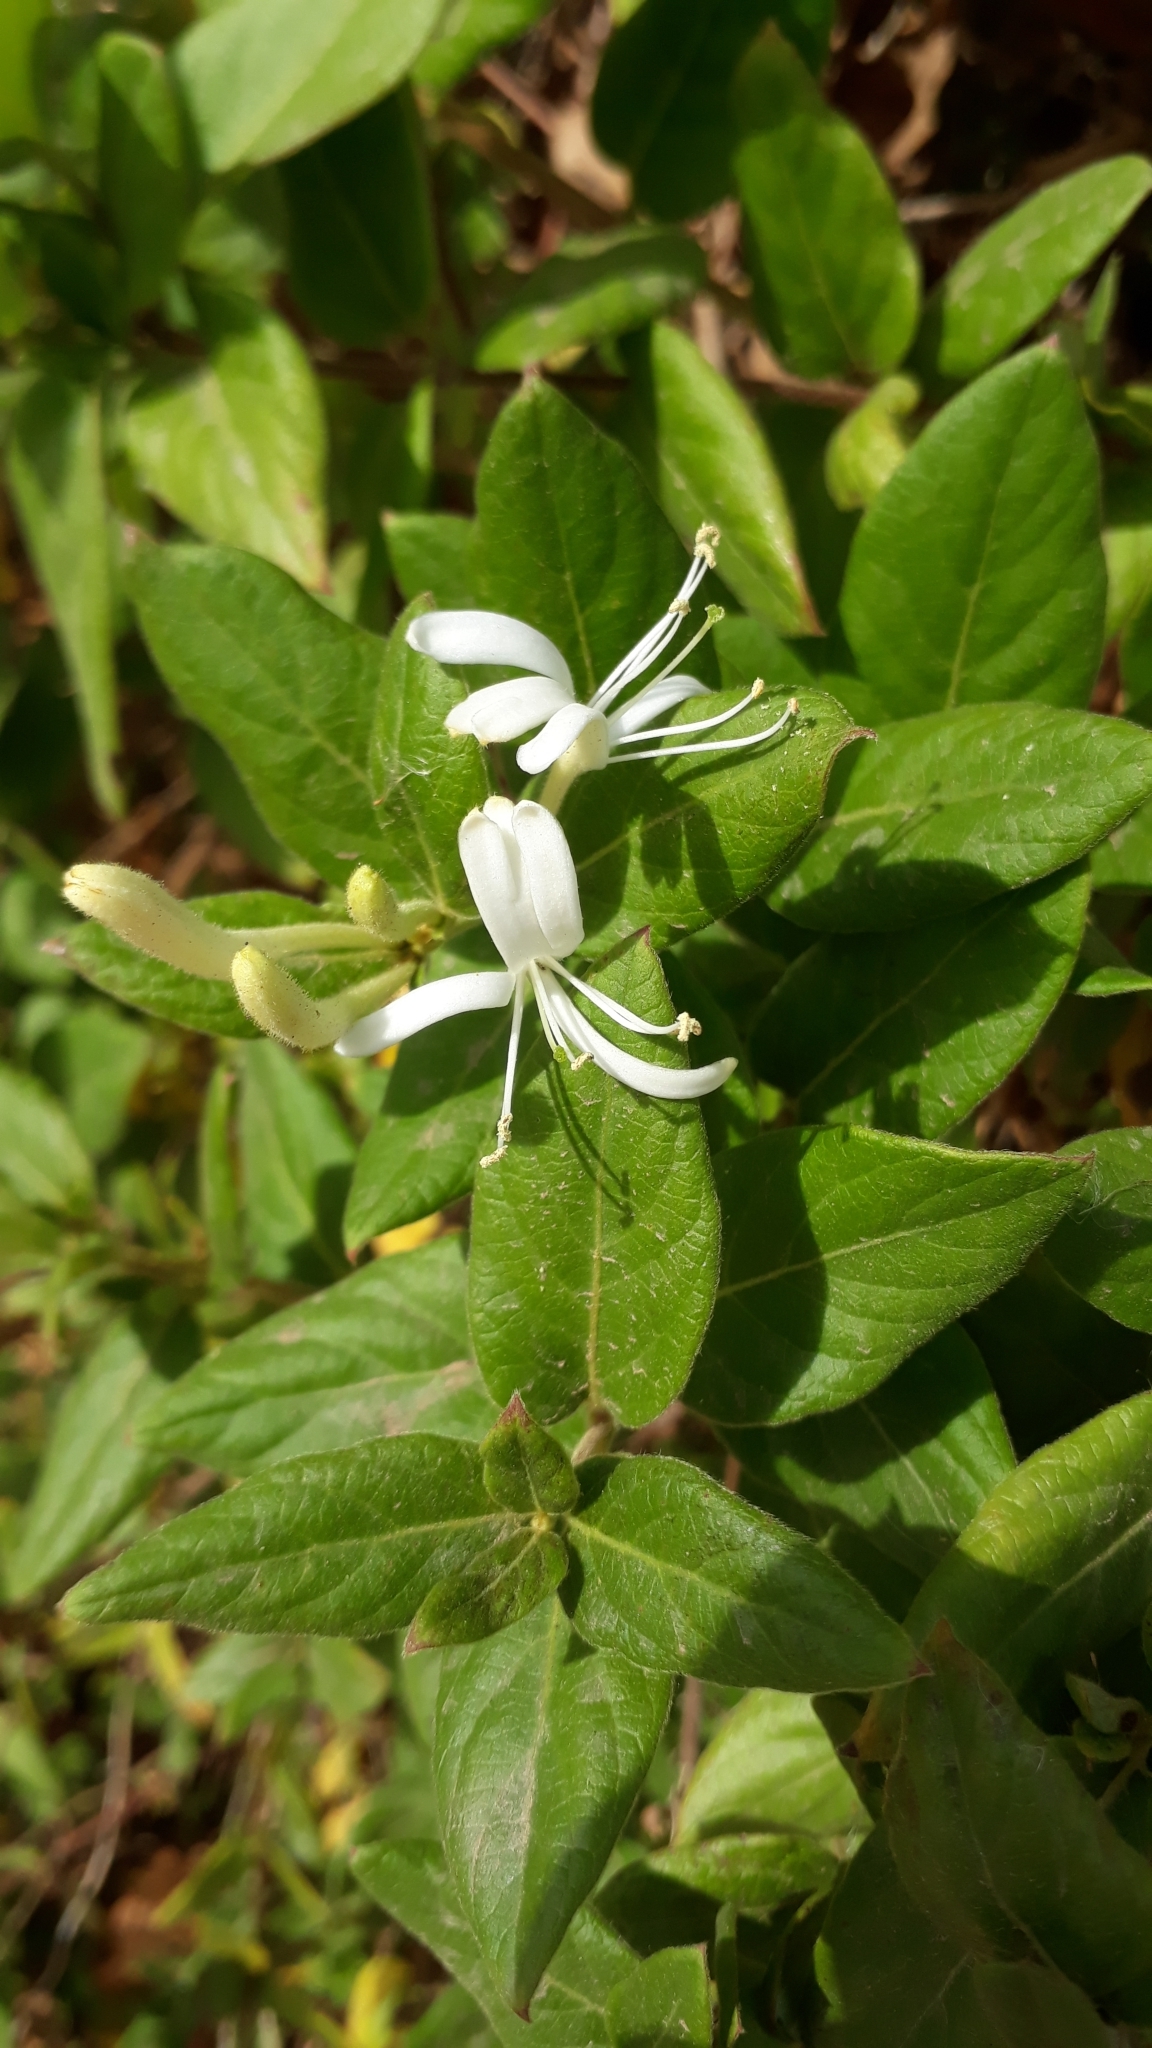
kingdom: Plantae
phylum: Tracheophyta
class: Magnoliopsida
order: Dipsacales
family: Caprifoliaceae
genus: Lonicera
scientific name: Lonicera japonica
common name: Japanese honeysuckle
